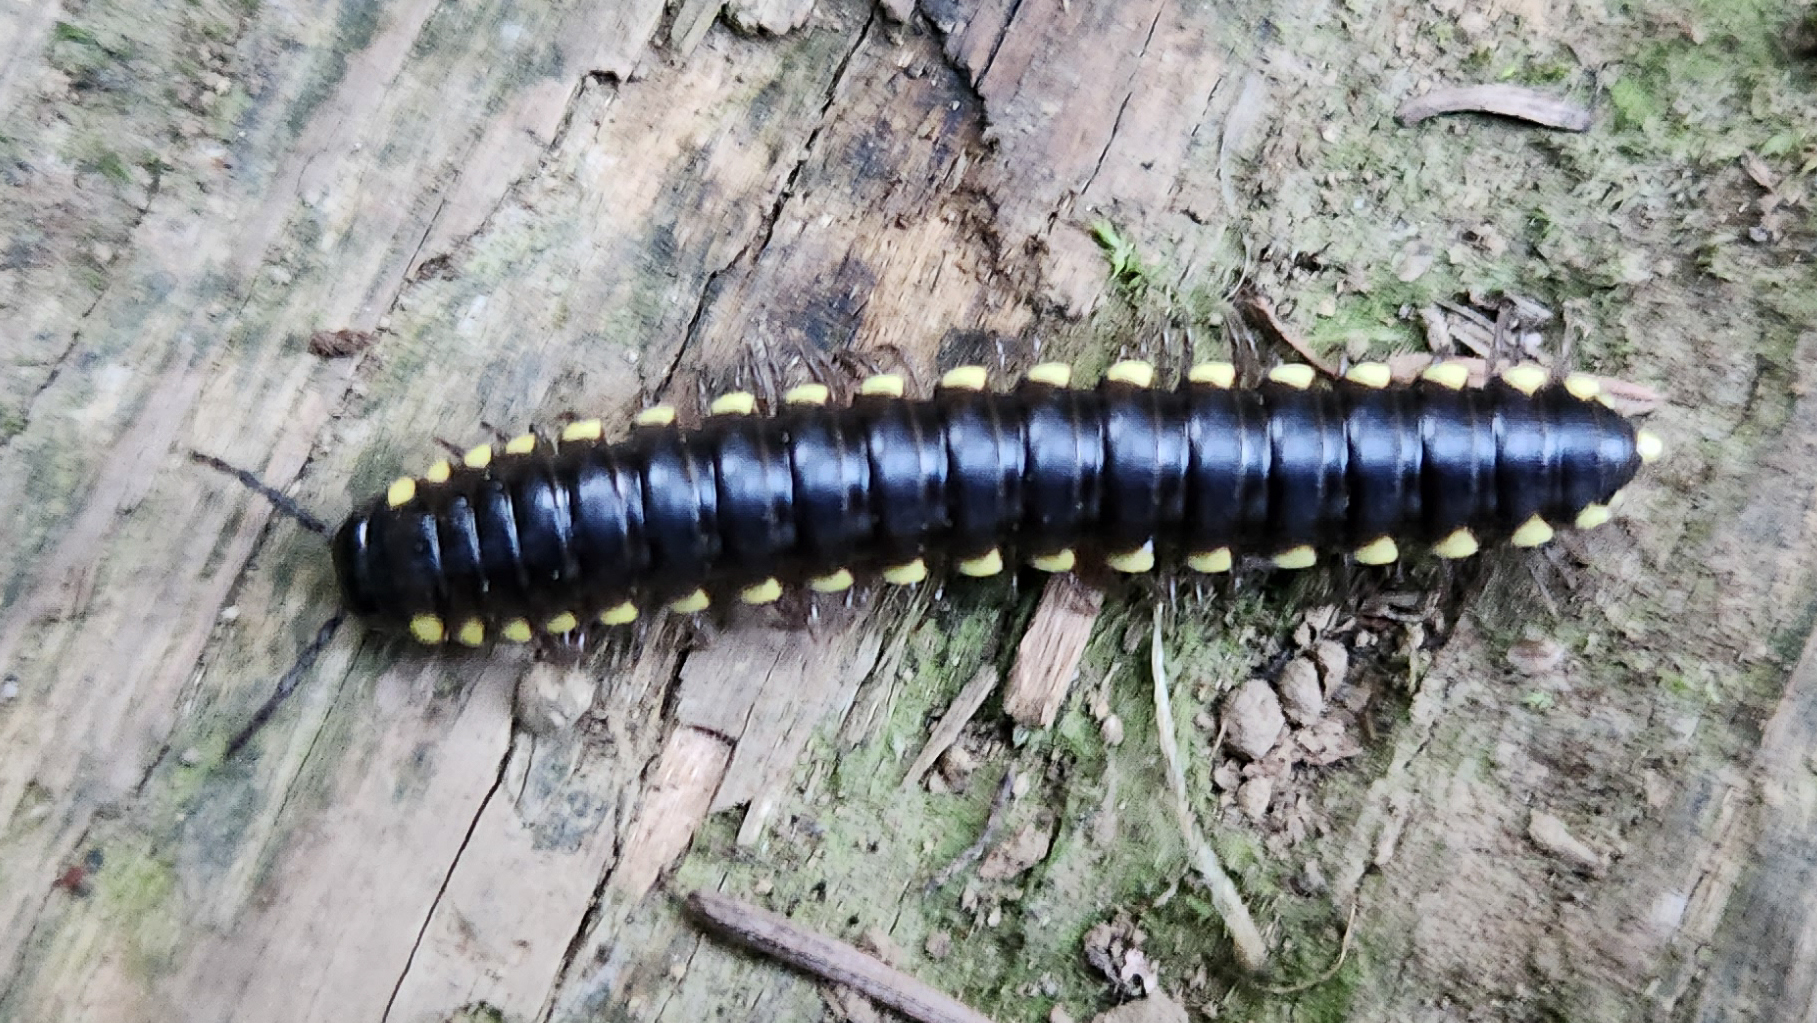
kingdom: Animalia
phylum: Arthropoda
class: Diplopoda
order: Polydesmida
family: Xystodesmidae
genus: Harpaphe
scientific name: Harpaphe haydeniana
